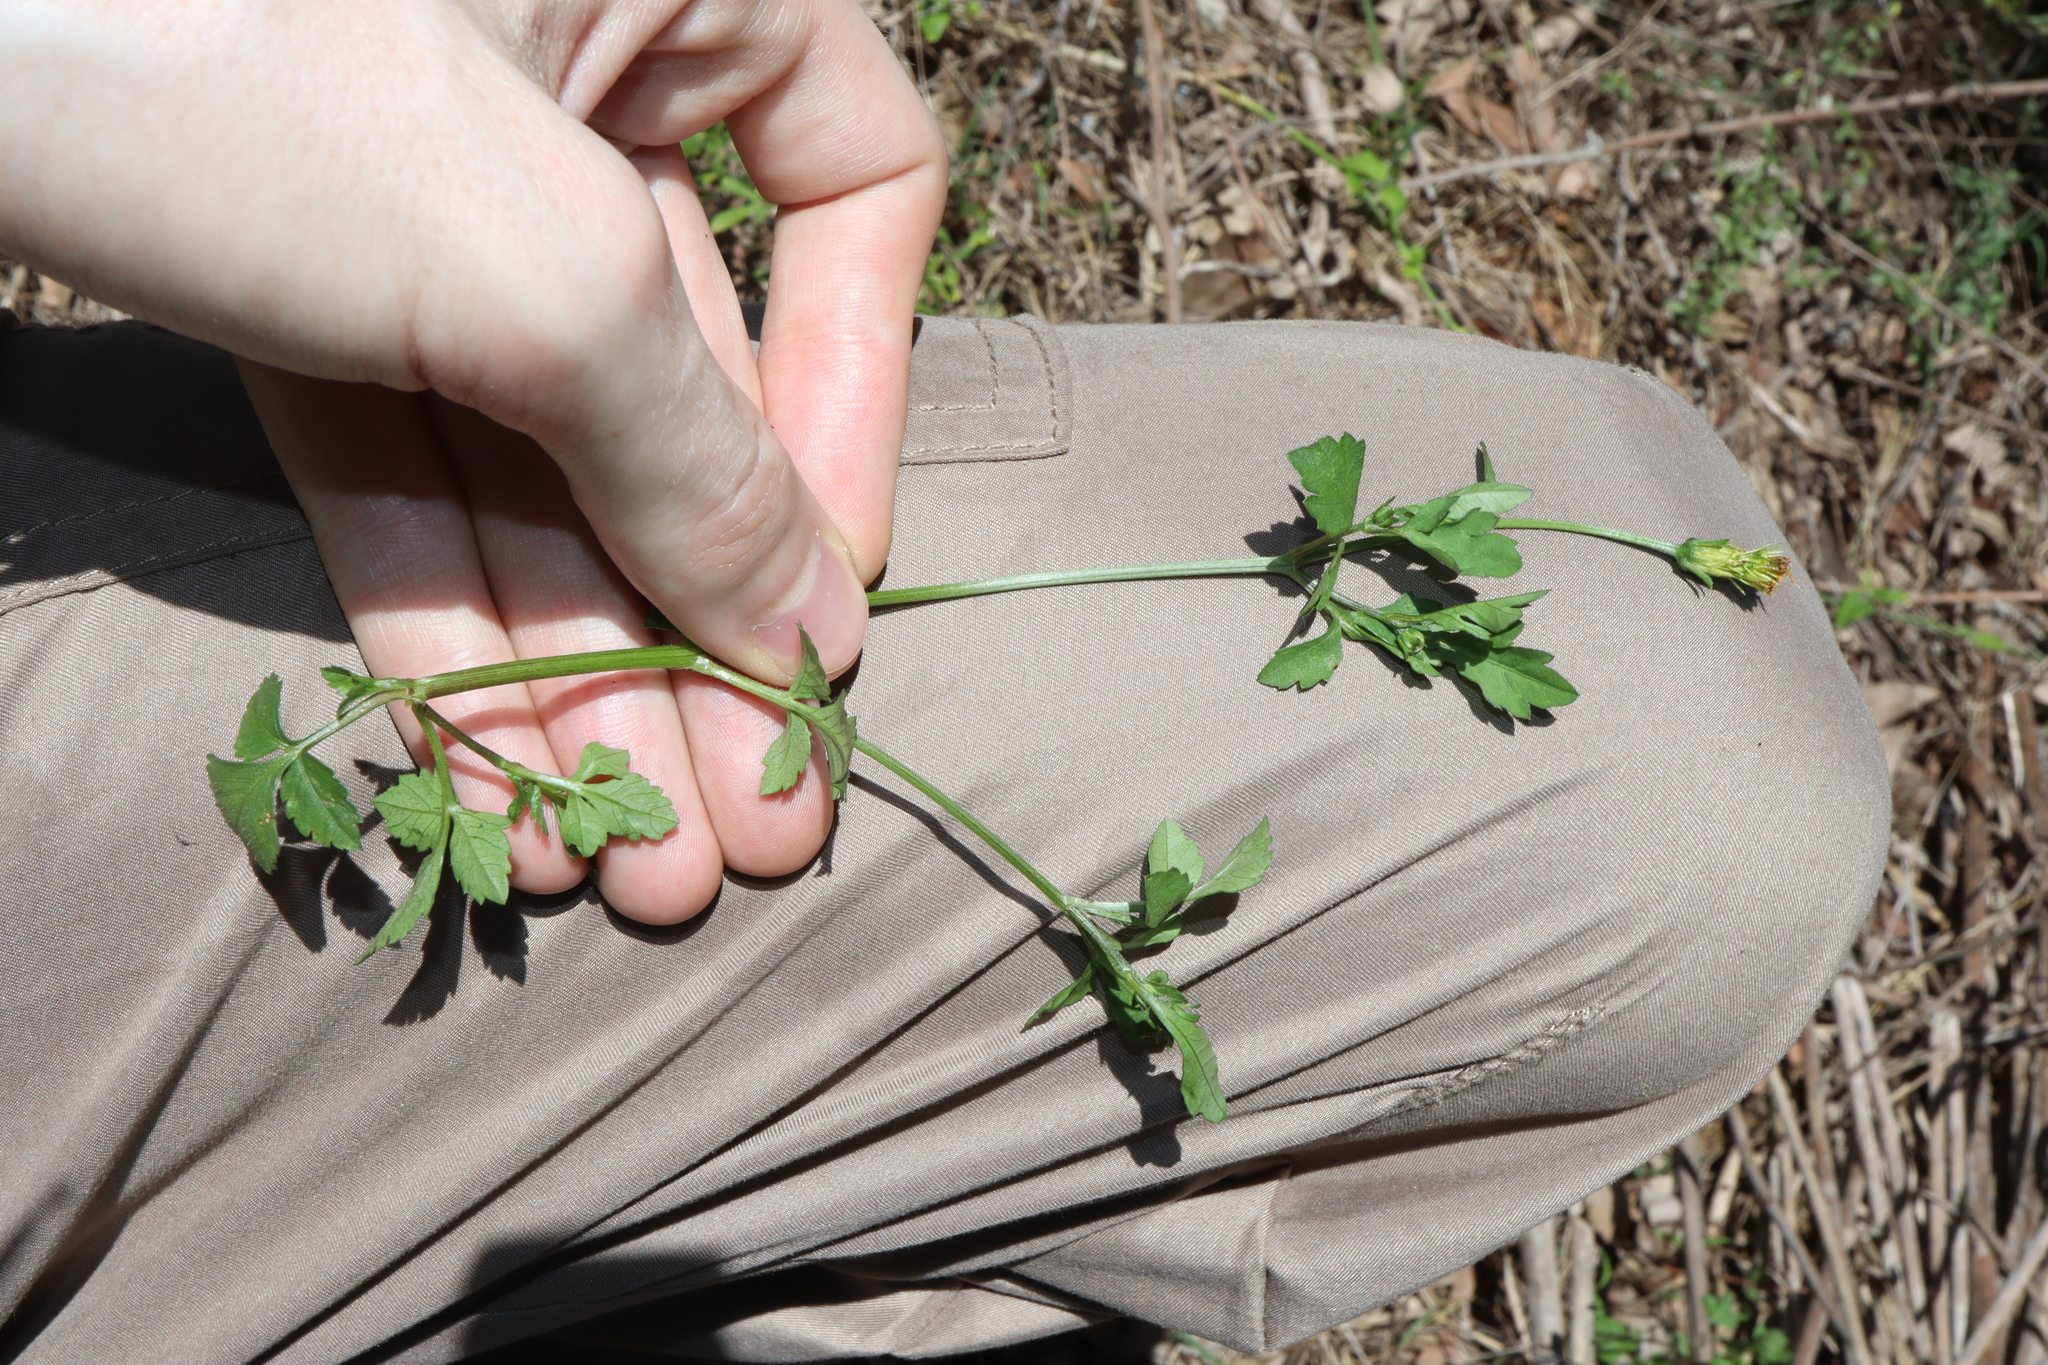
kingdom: Plantae
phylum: Tracheophyta
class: Magnoliopsida
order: Asterales
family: Asteraceae
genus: Bidens
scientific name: Bidens pilosa
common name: Black-jack
